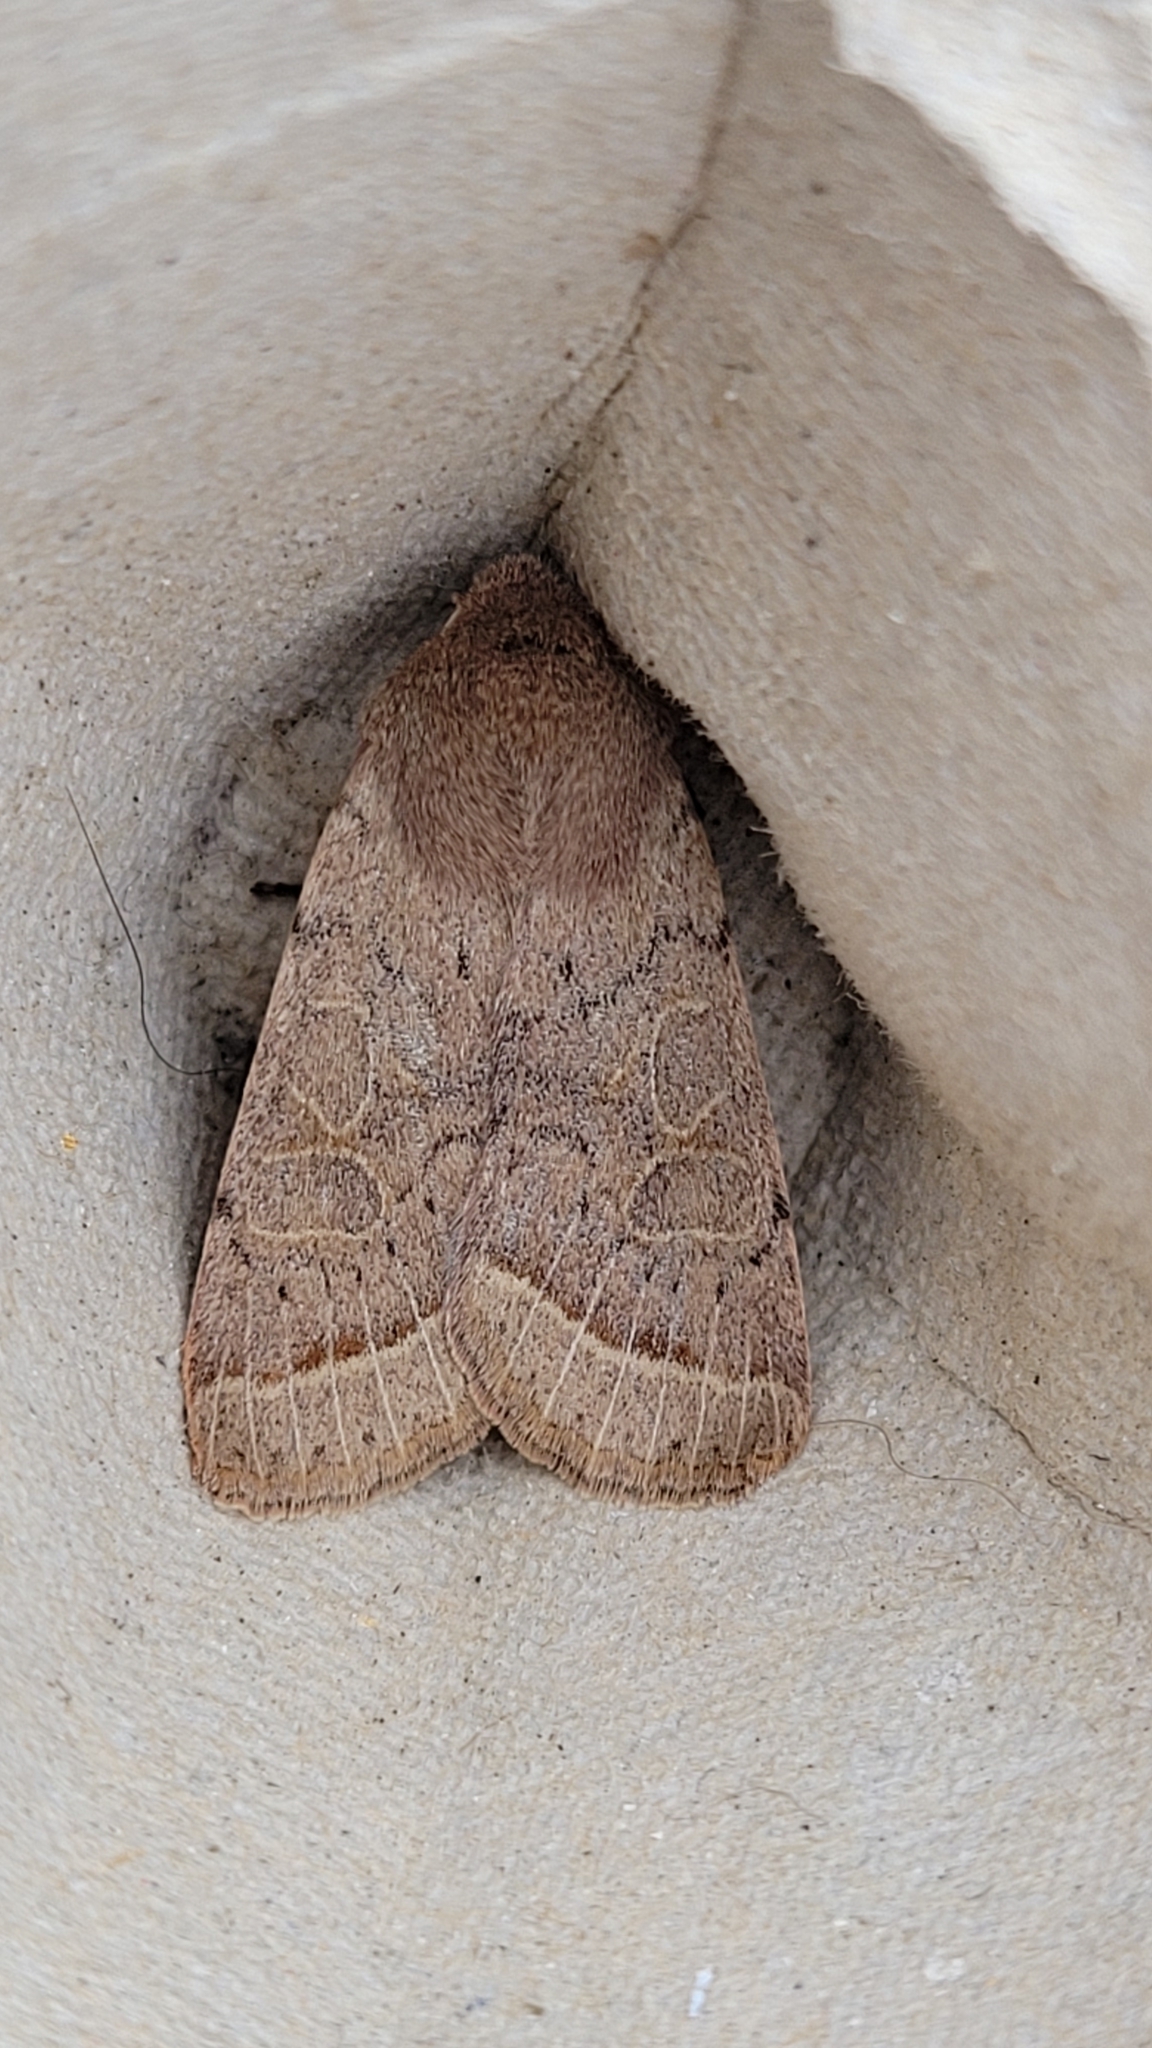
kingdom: Animalia
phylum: Arthropoda
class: Insecta
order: Lepidoptera
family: Noctuidae
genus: Orthosia
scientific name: Orthosia cerasi
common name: Common quaker
